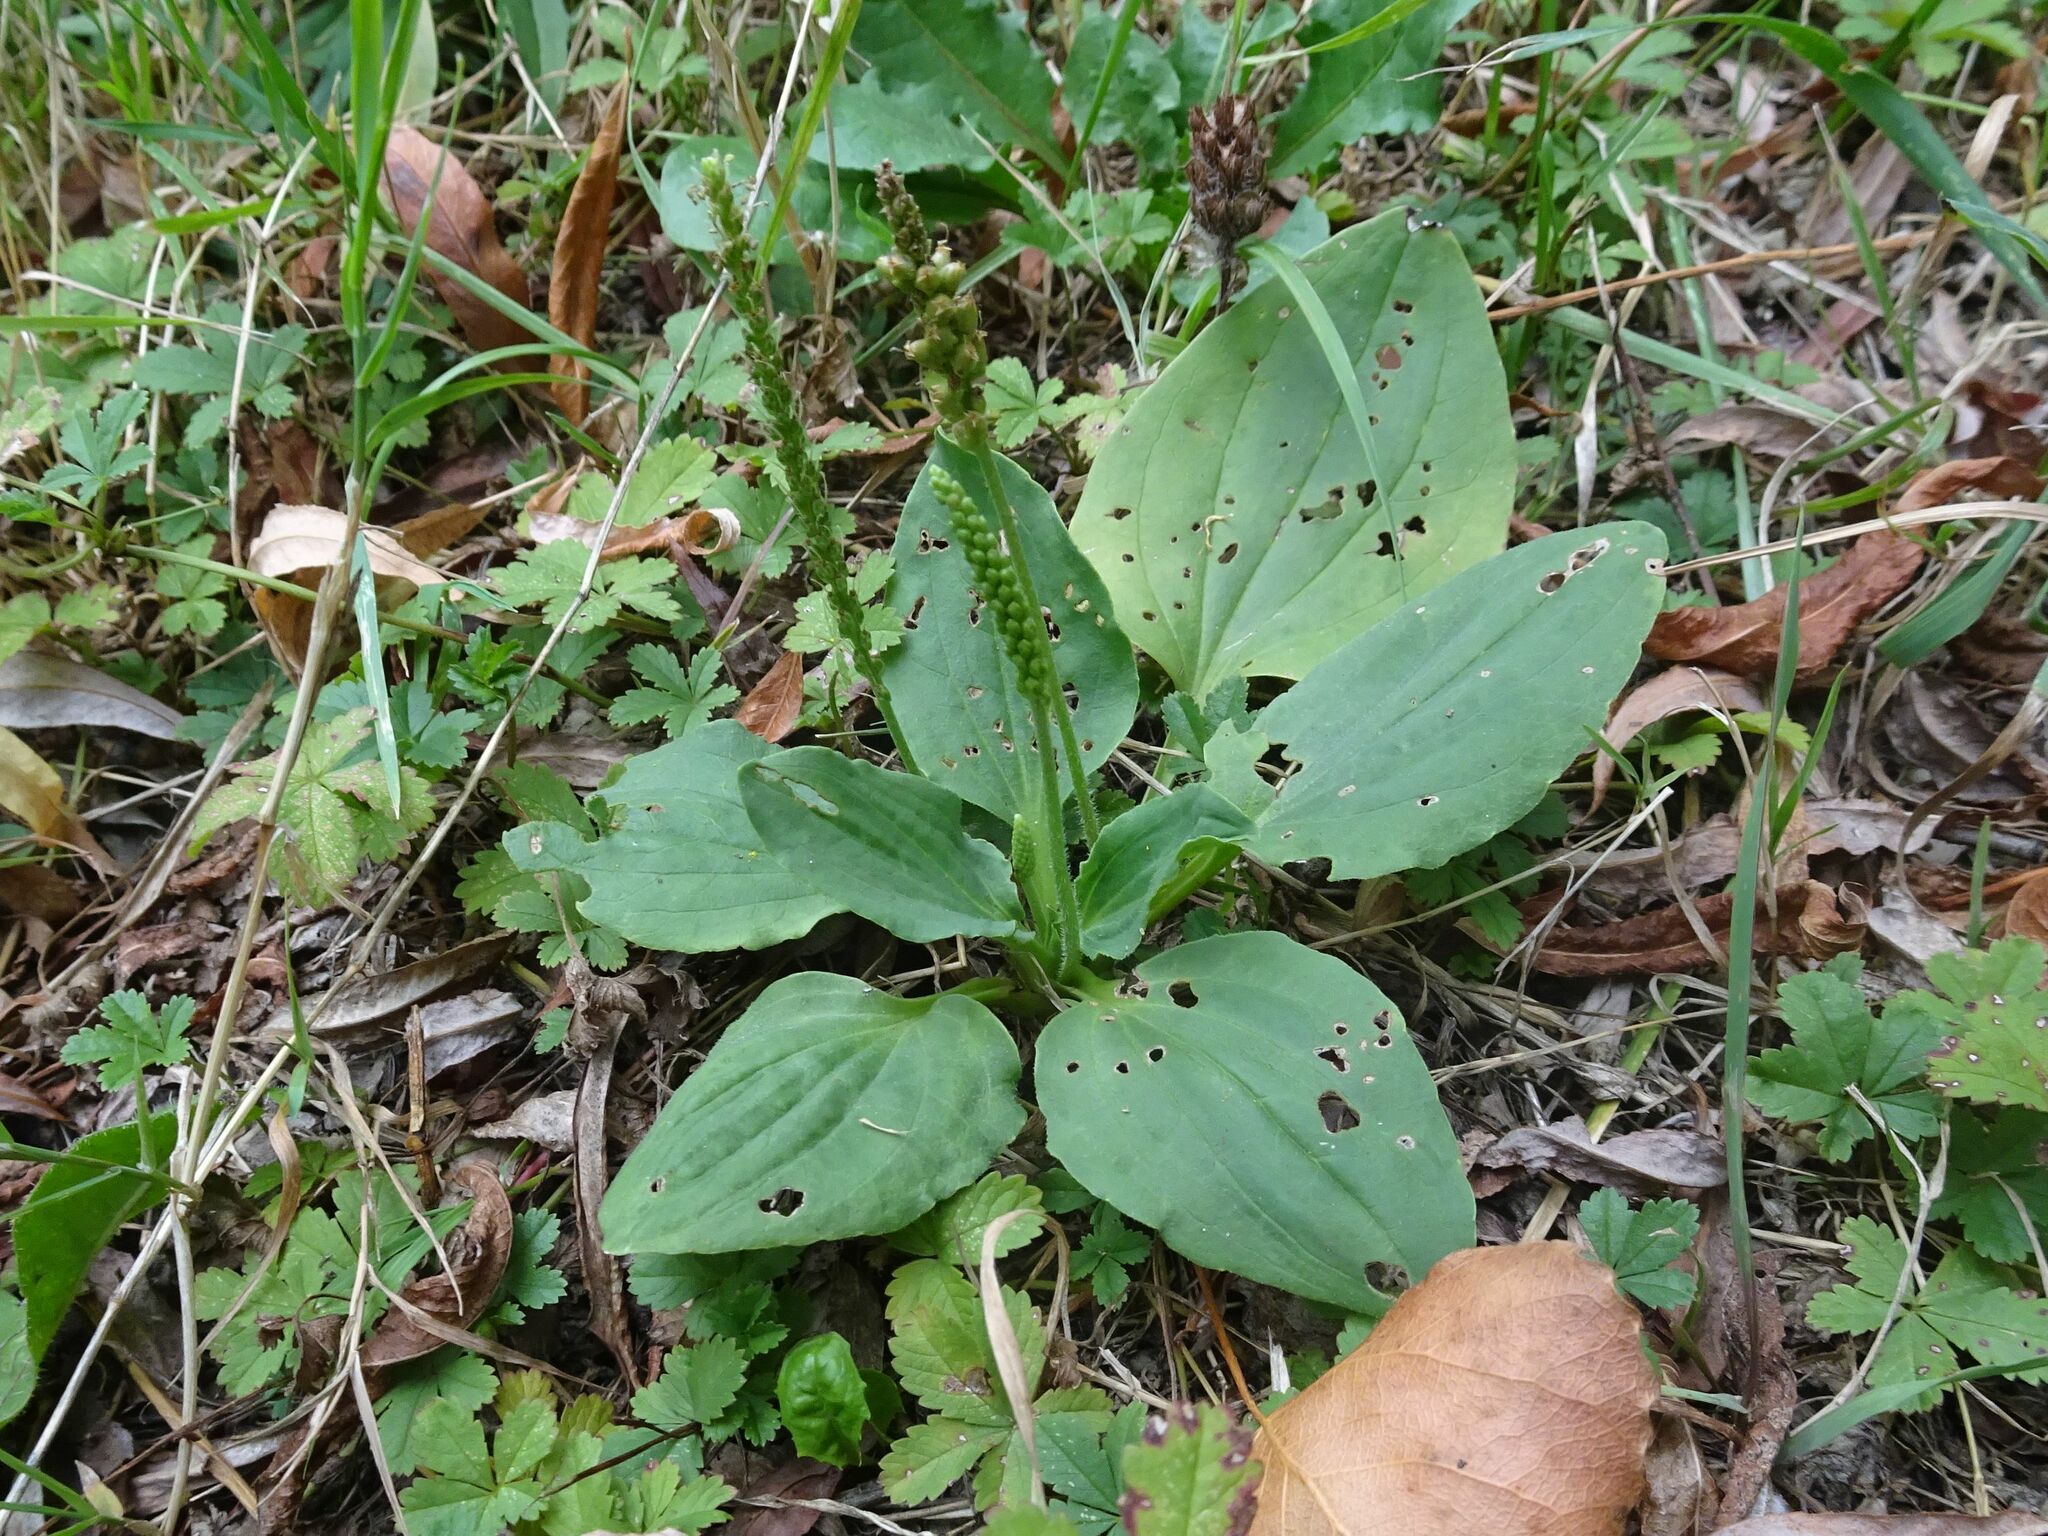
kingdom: Plantae
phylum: Tracheophyta
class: Magnoliopsida
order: Lamiales
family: Plantaginaceae
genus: Plantago
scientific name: Plantago major
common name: Common plantain
